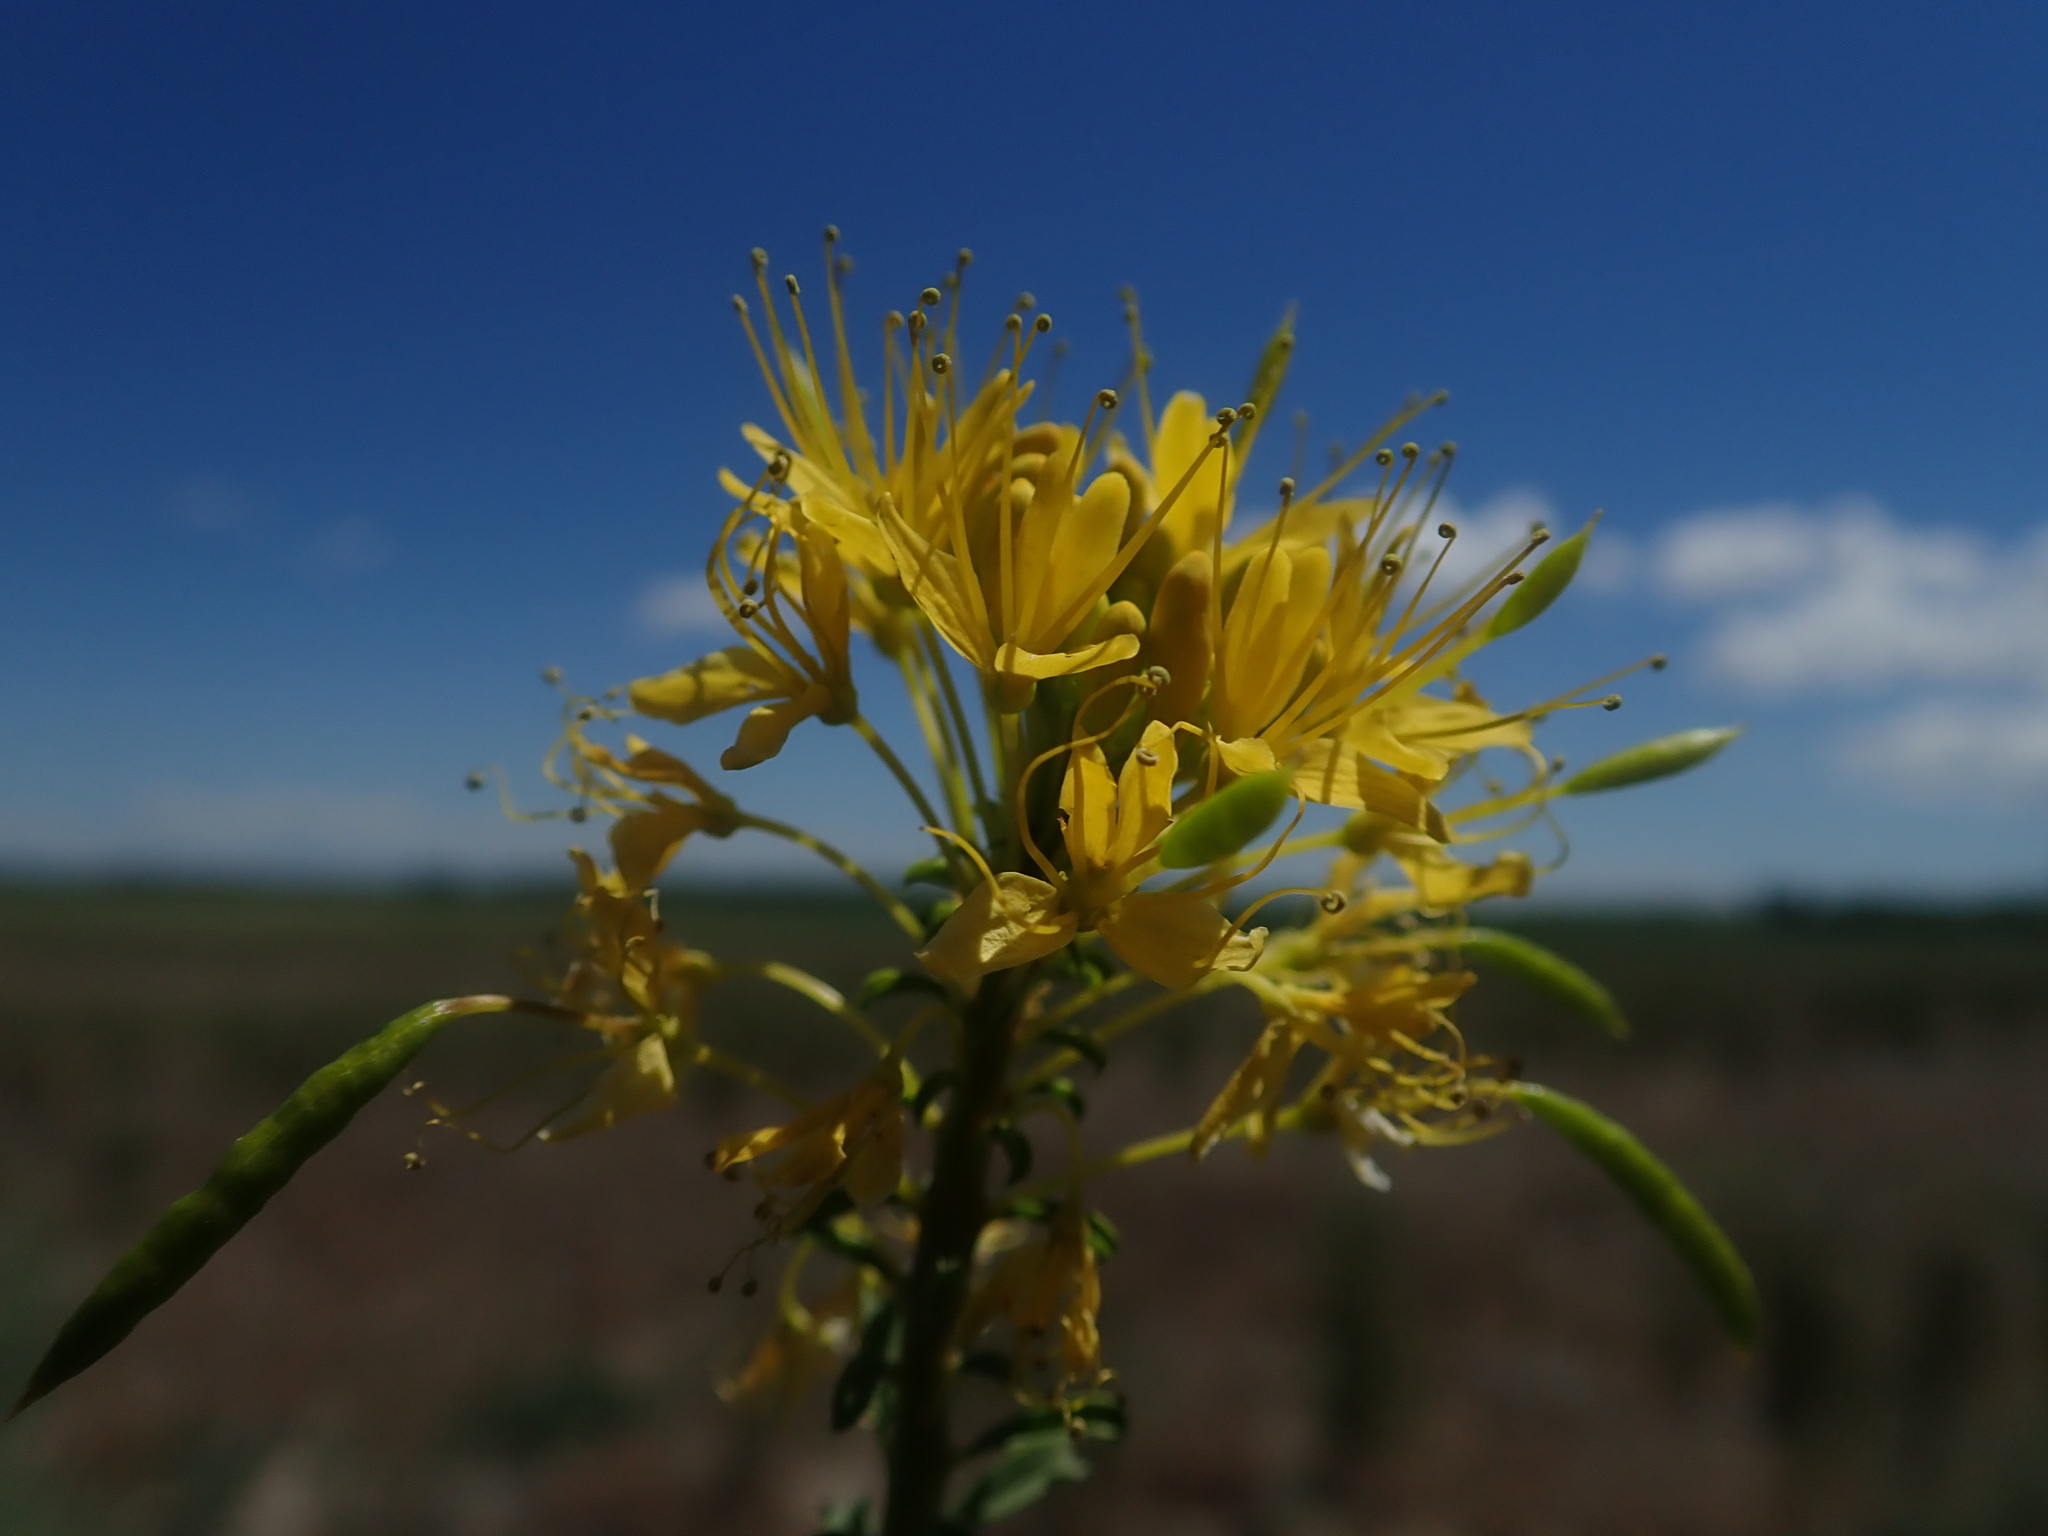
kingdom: Plantae
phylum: Tracheophyta
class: Magnoliopsida
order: Brassicales
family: Cleomaceae
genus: Cleomella
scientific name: Cleomella lutea
